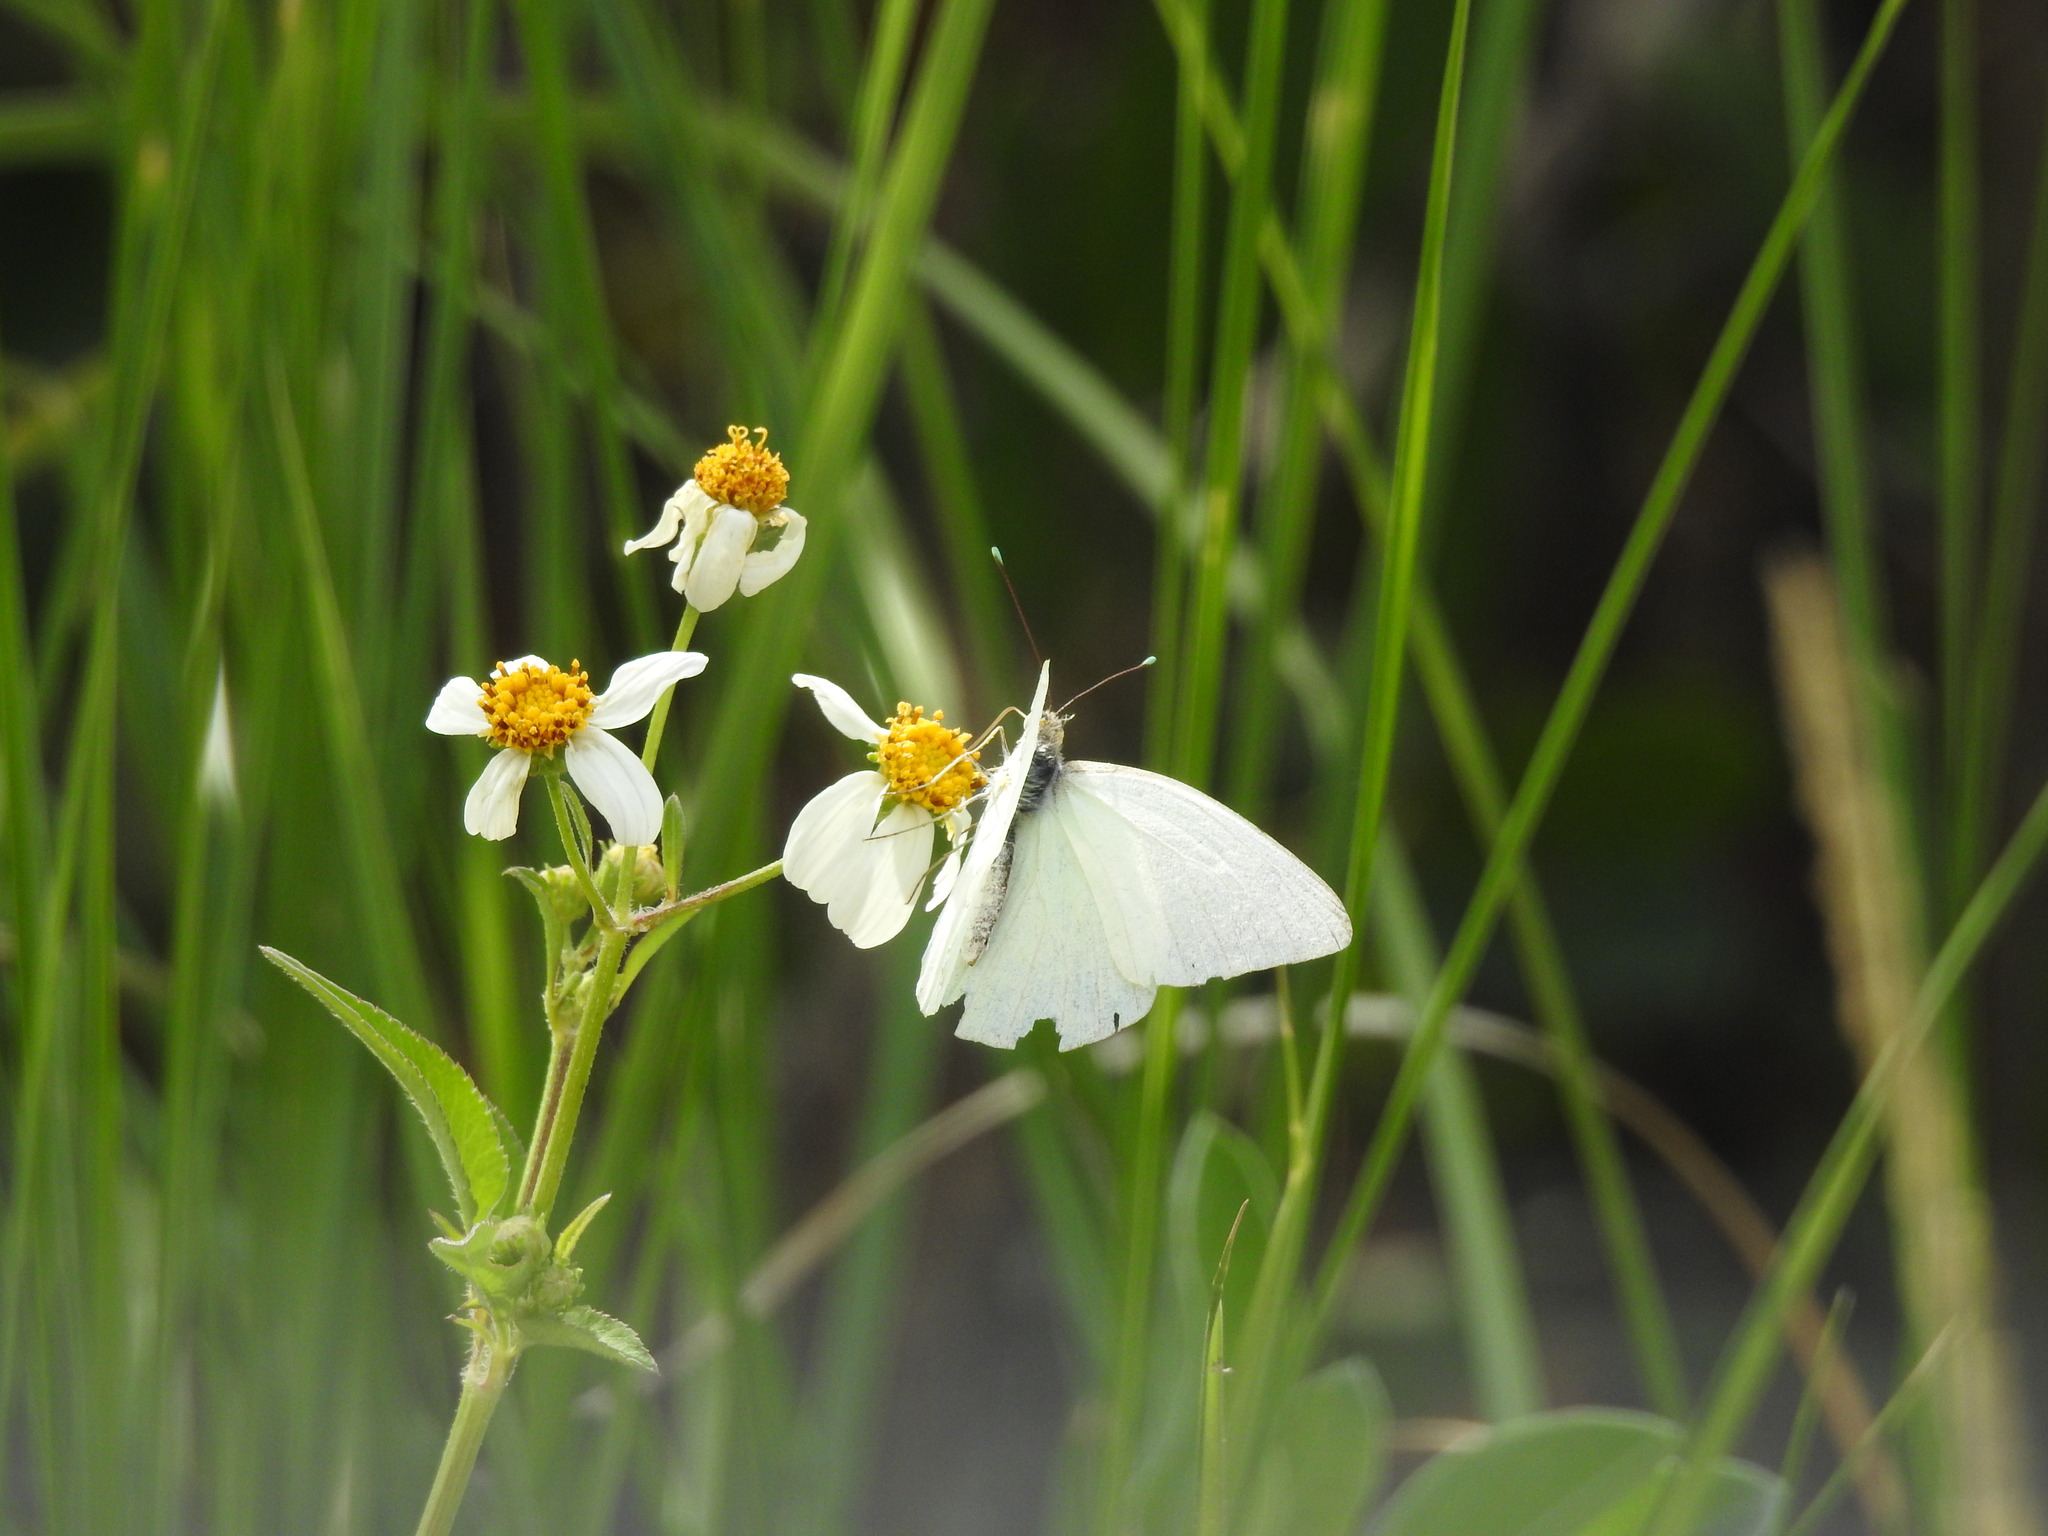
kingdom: Animalia
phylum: Arthropoda
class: Insecta
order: Lepidoptera
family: Pieridae
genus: Ascia
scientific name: Ascia monuste
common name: Great southern white
